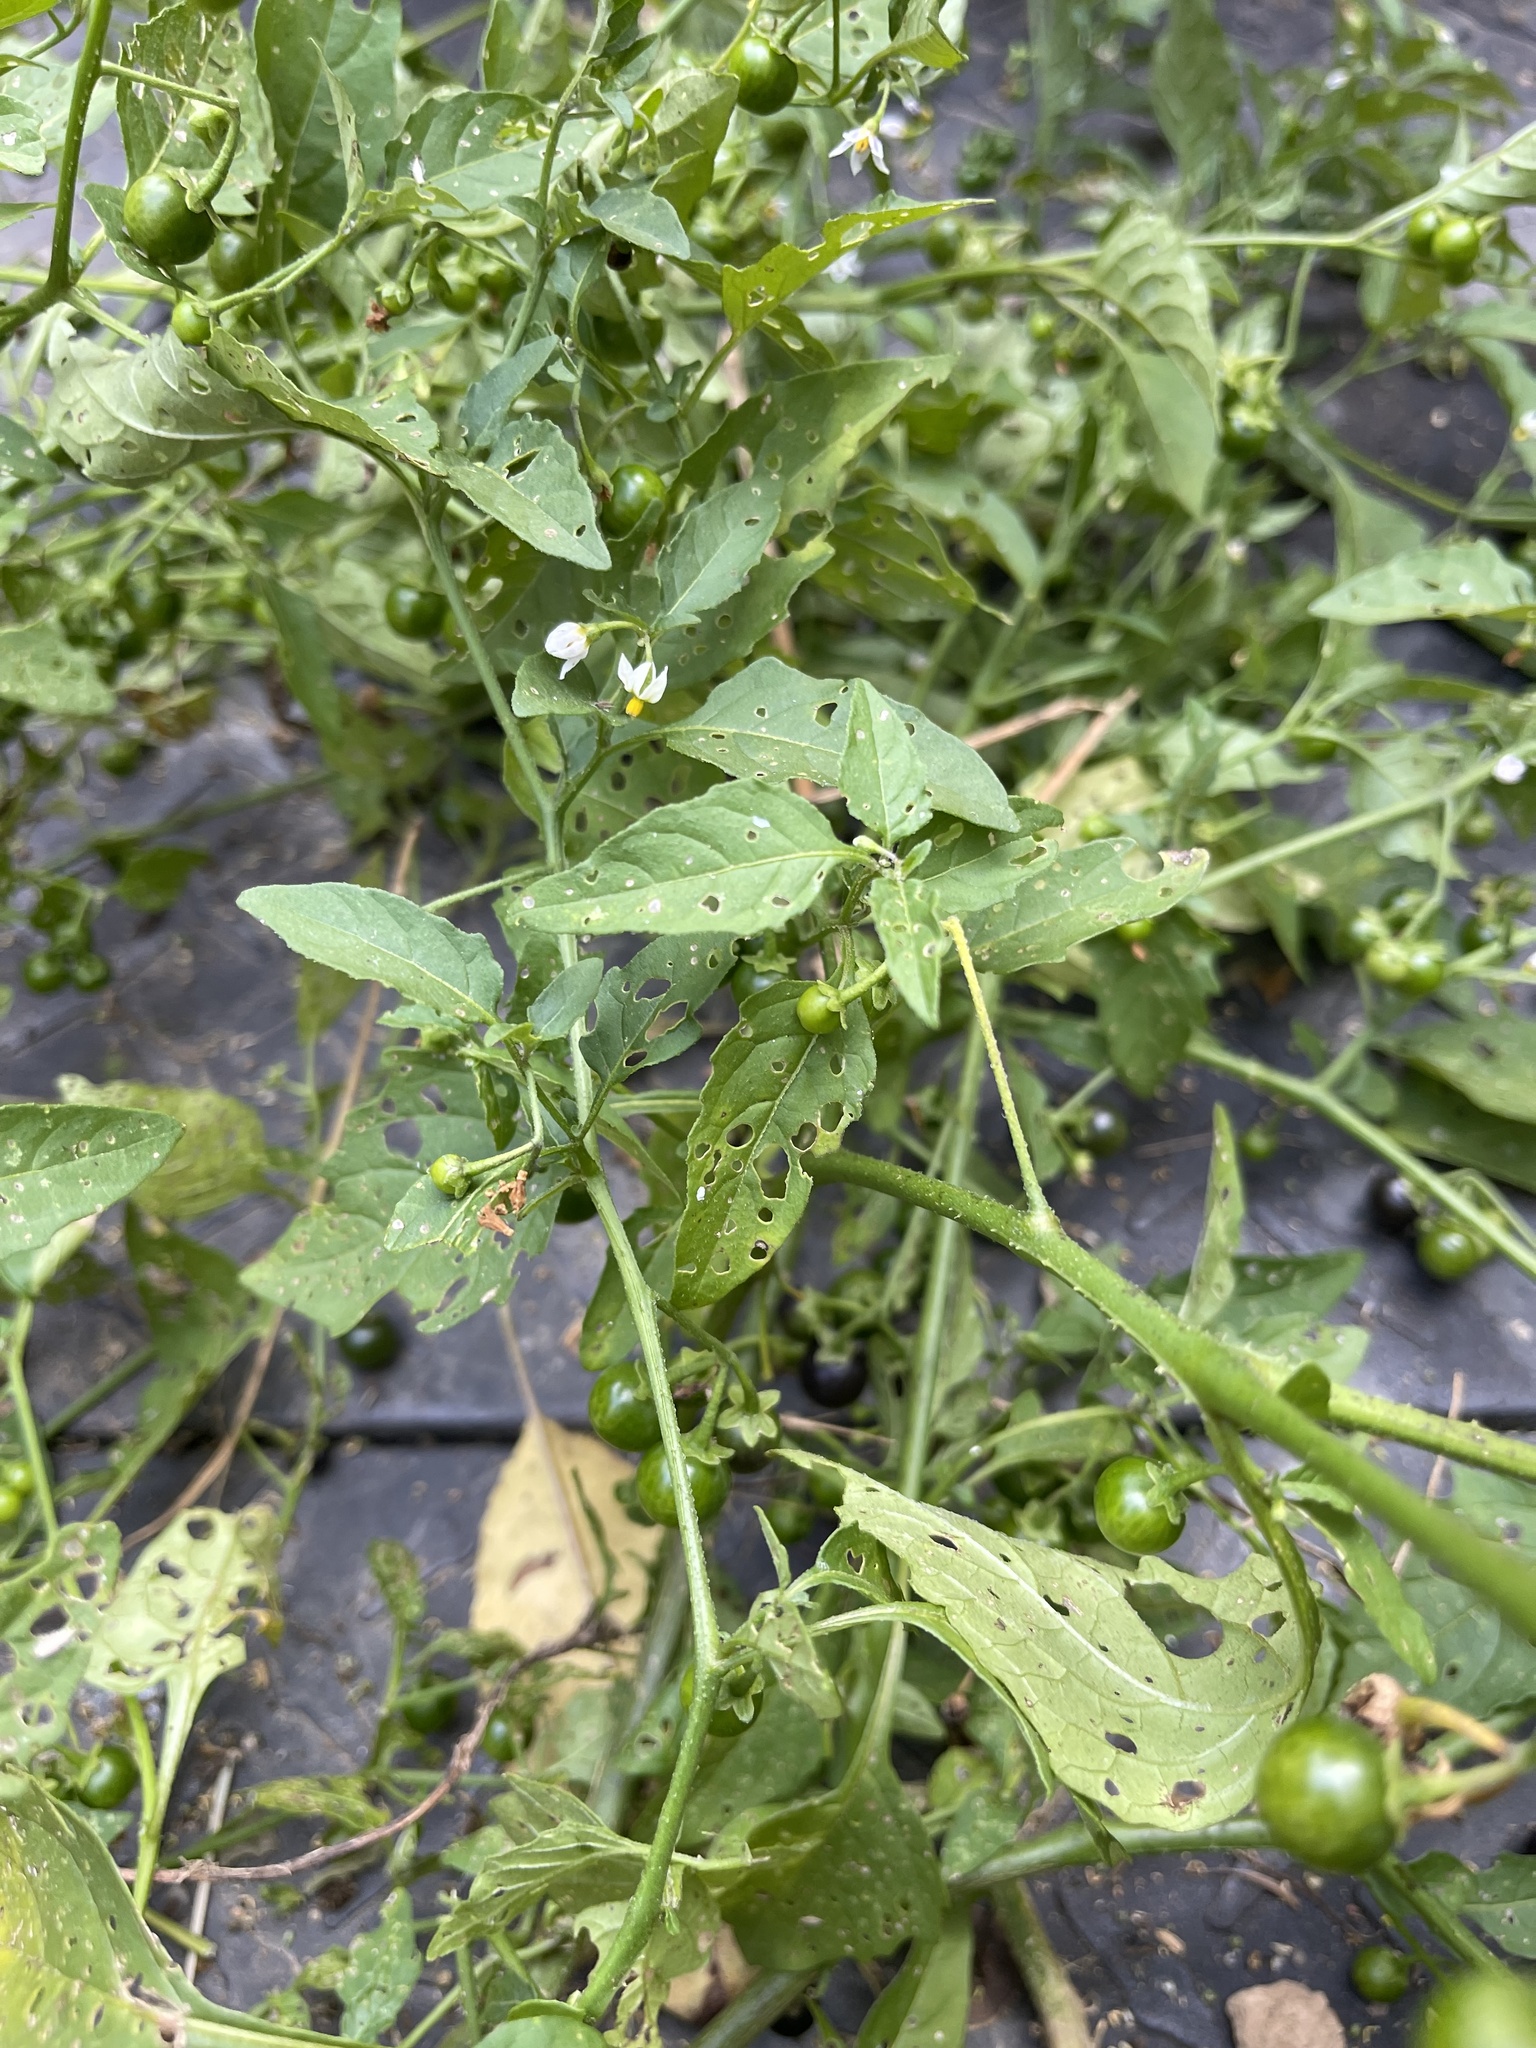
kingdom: Plantae
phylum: Tracheophyta
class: Magnoliopsida
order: Solanales
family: Solanaceae
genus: Solanum
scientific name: Solanum emulans
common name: Eastern black nightshade
